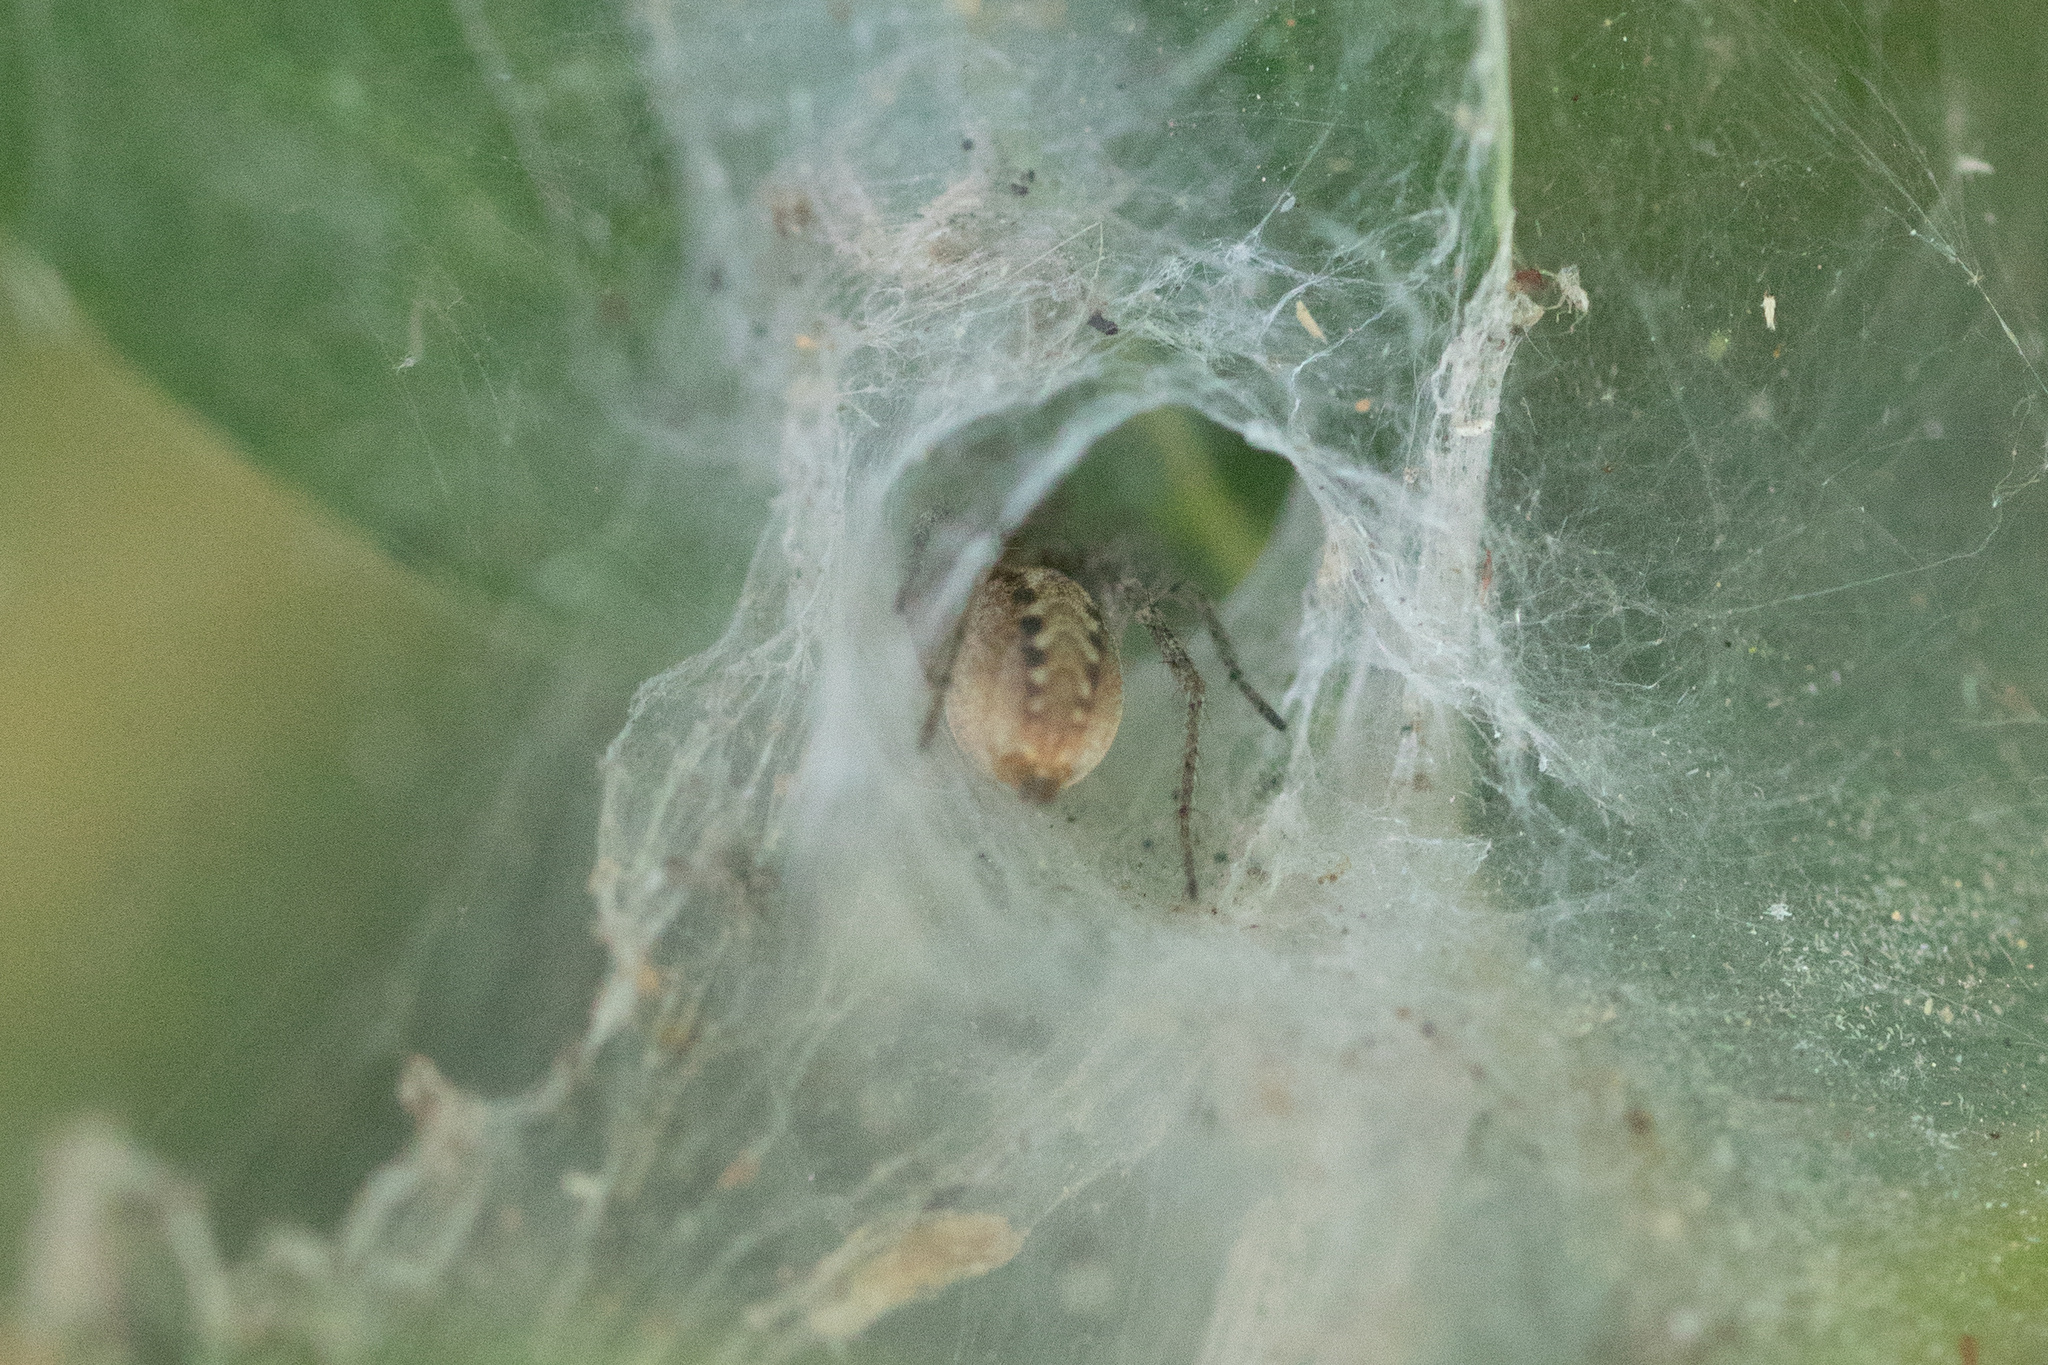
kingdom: Animalia
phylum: Arthropoda
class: Arachnida
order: Araneae
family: Agelenidae
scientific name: Agelenidae
